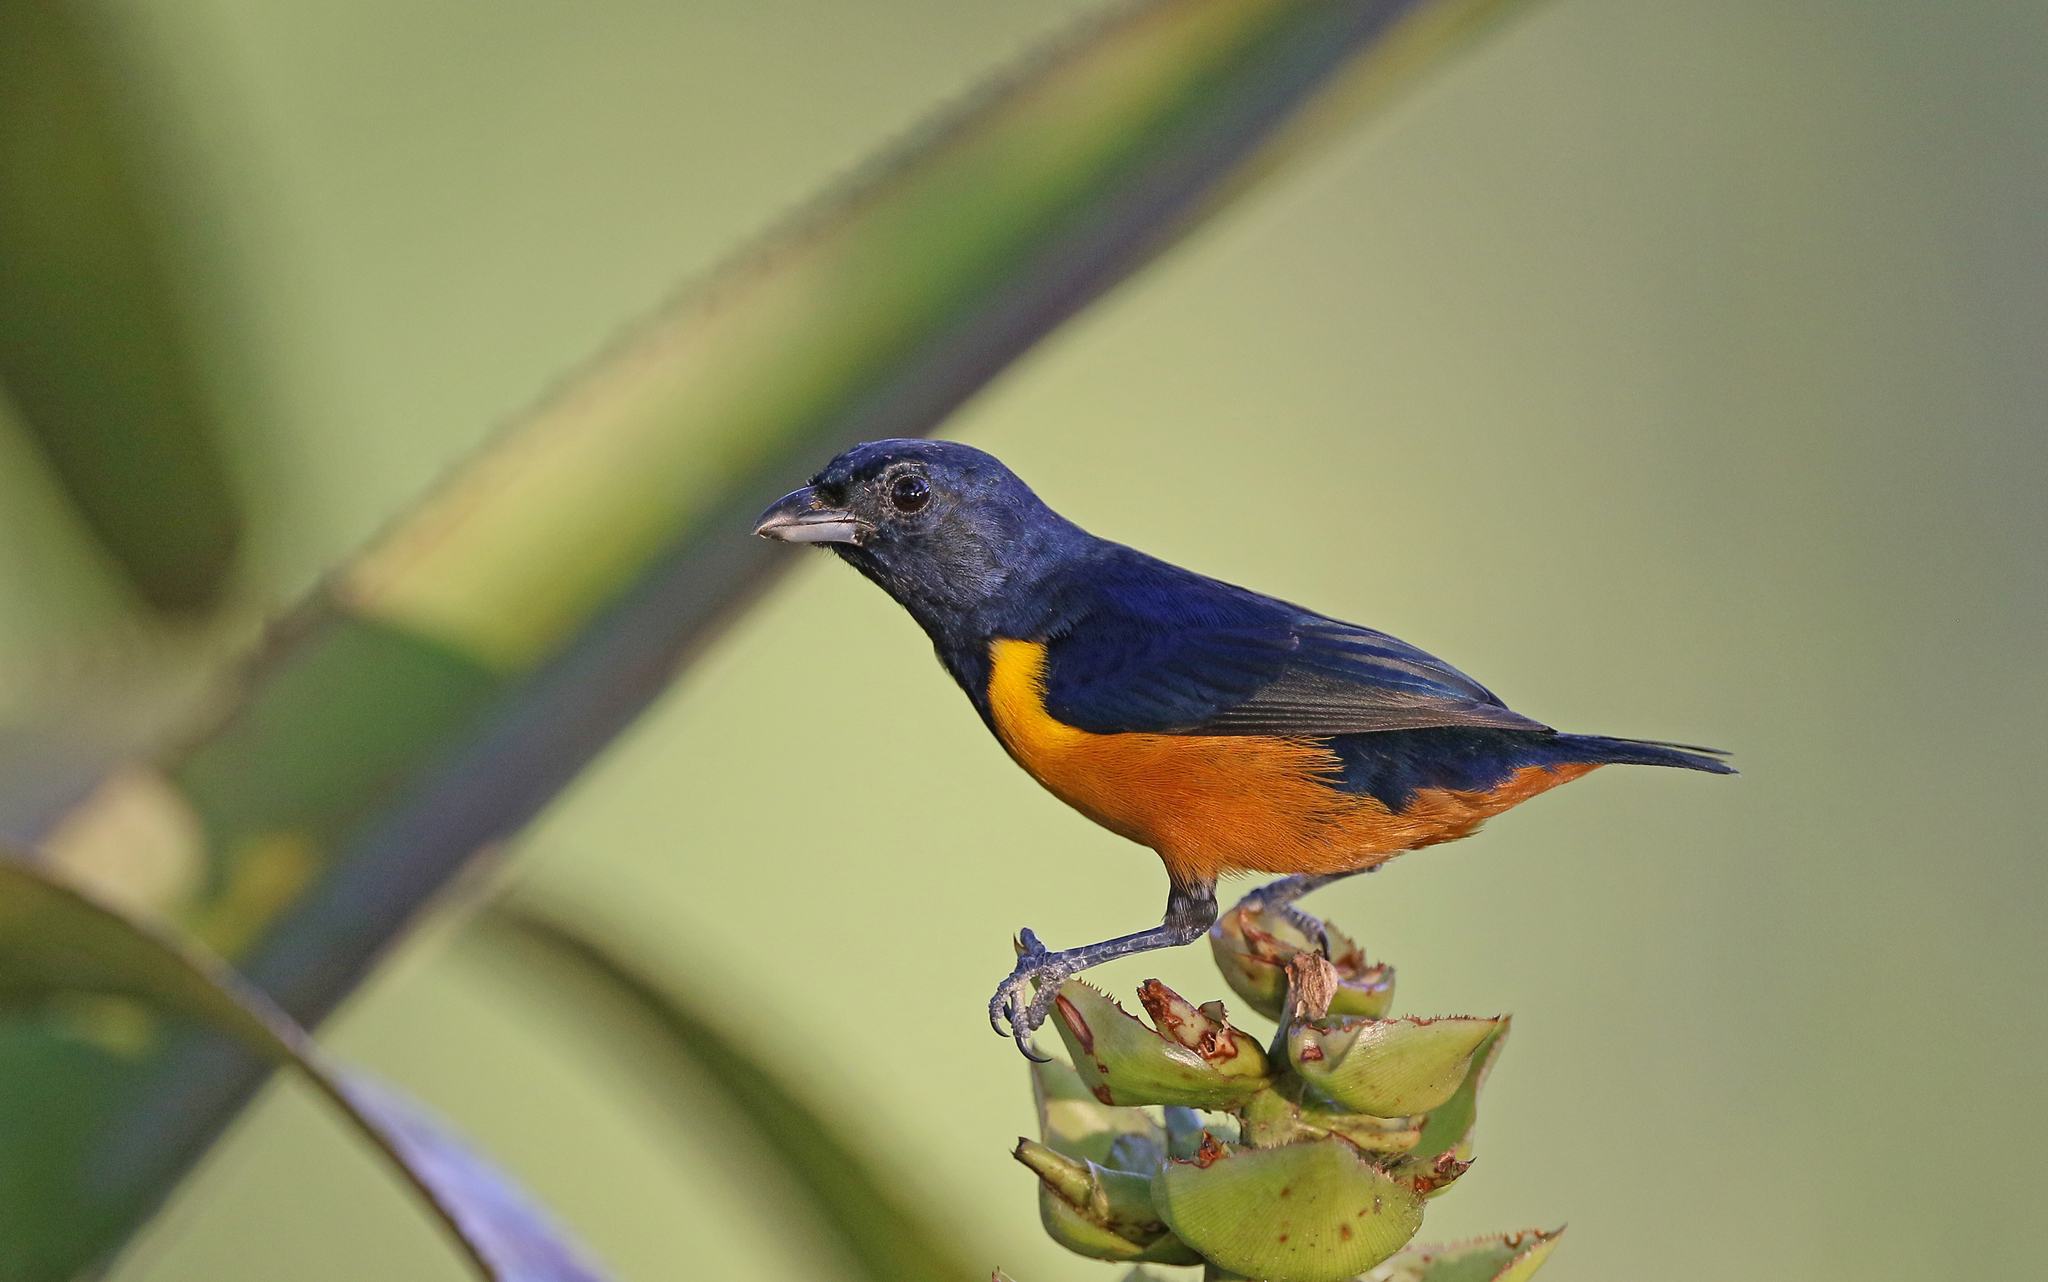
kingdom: Animalia
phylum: Chordata
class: Aves
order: Passeriformes
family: Fringillidae
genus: Euphonia
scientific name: Euphonia rufiventris
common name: Rufous-bellied euphonia
